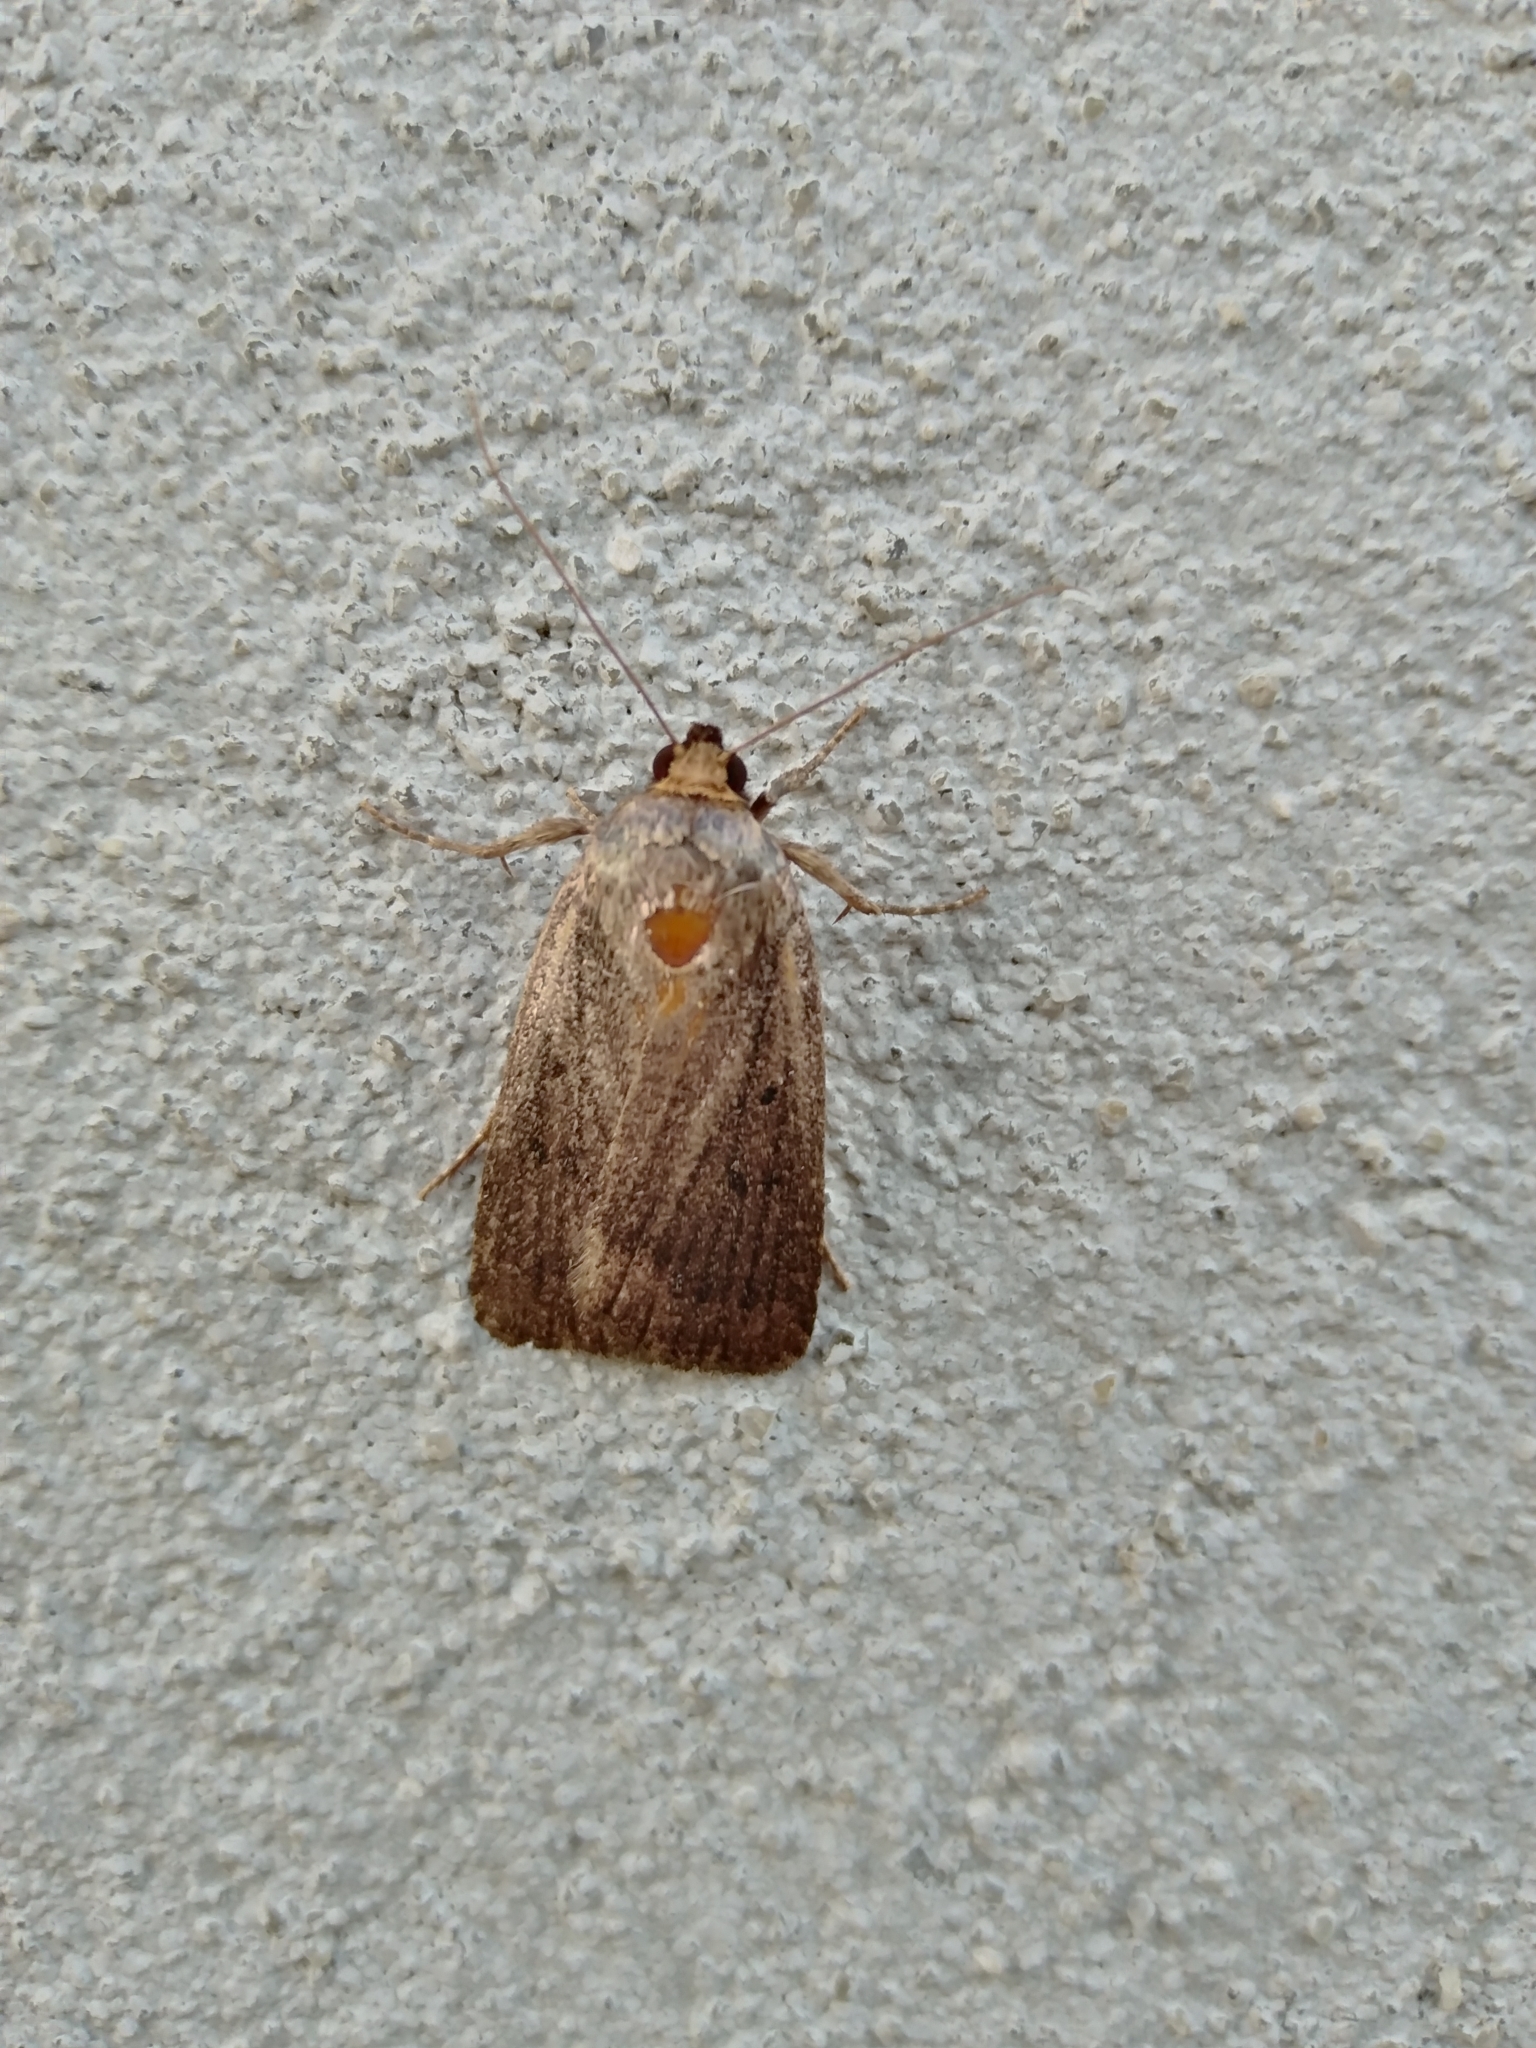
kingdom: Animalia
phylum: Arthropoda
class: Insecta
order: Lepidoptera
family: Noctuidae
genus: Amphipyra
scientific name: Amphipyra tragopoginis
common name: Mouse moth
